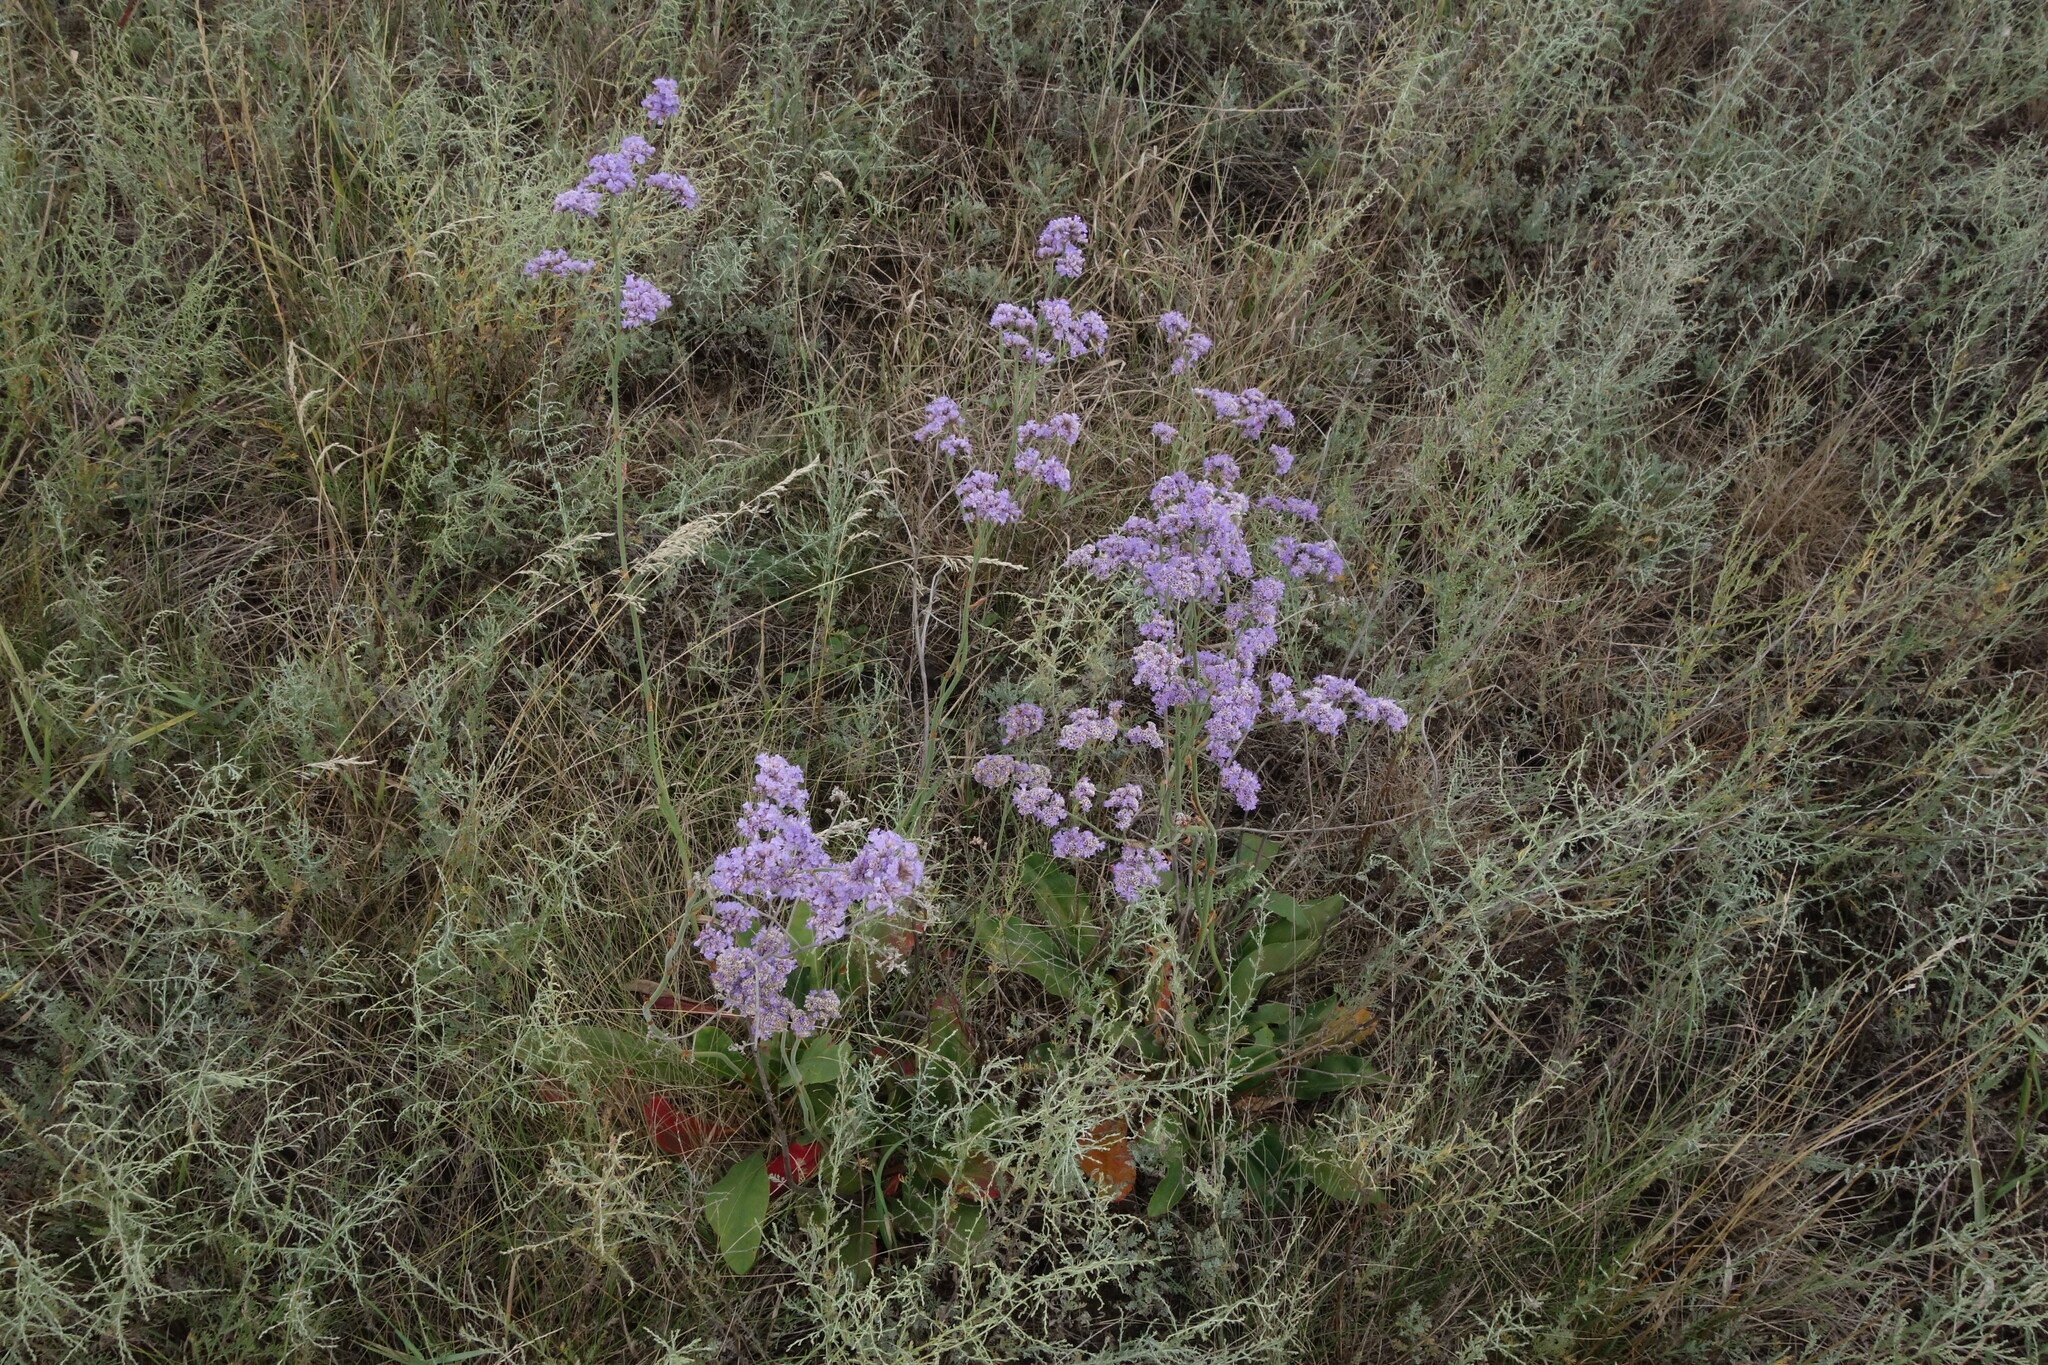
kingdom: Plantae
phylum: Tracheophyta
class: Magnoliopsida
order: Caryophyllales
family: Plumbaginaceae
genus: Limonium
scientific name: Limonium tomentellum
